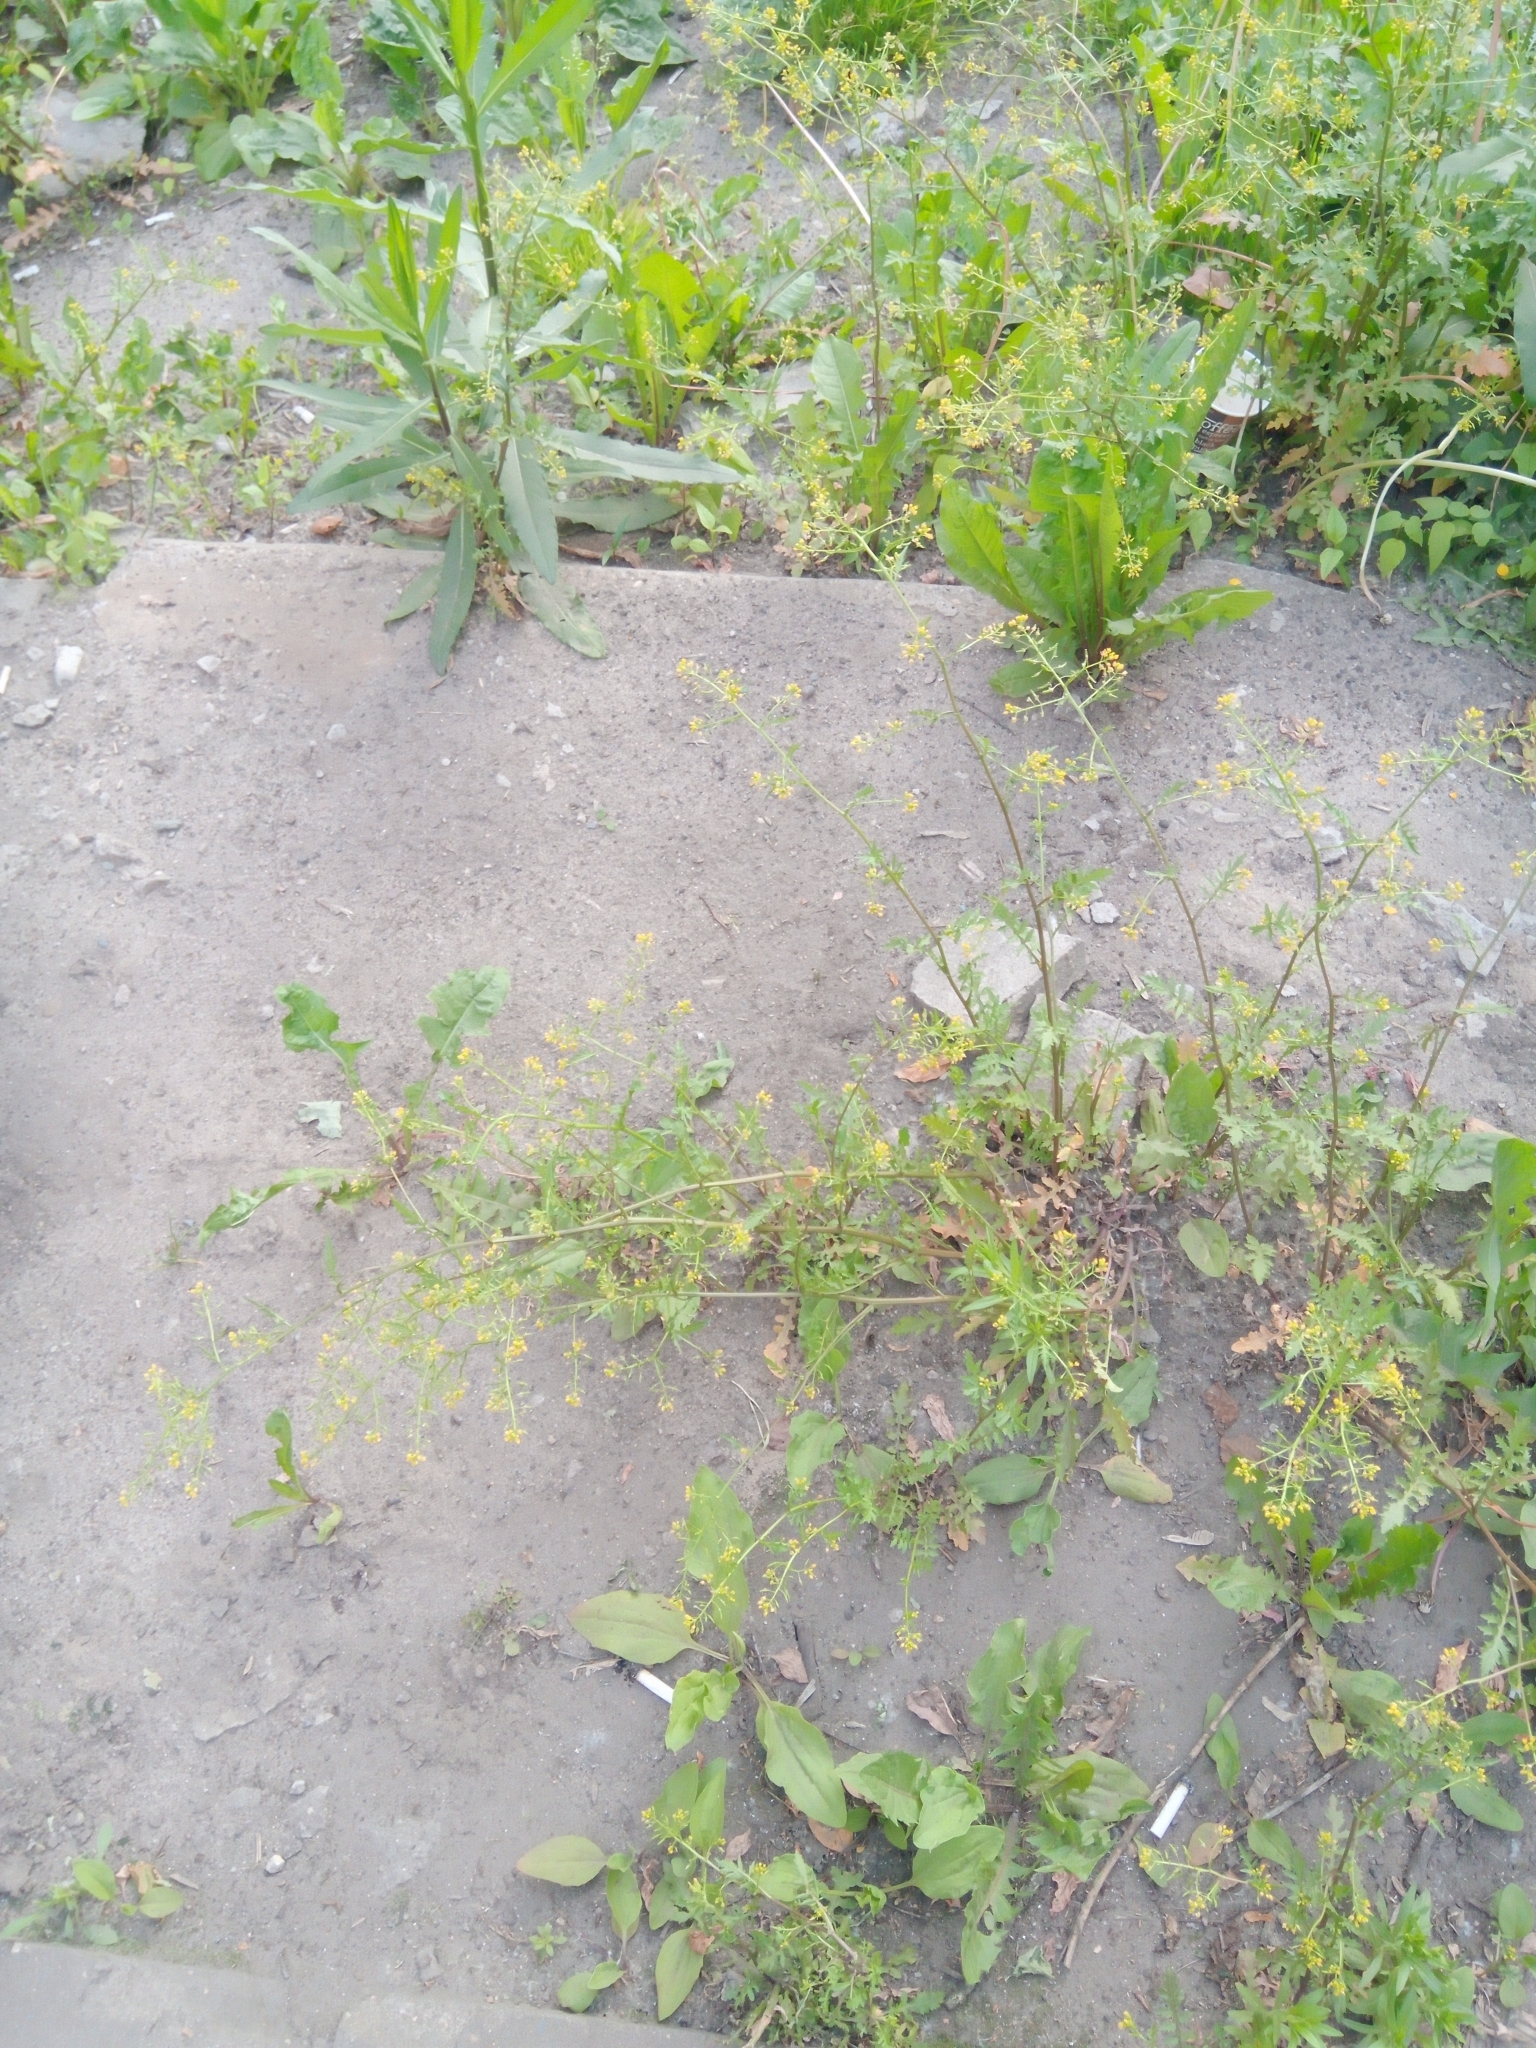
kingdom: Plantae
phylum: Tracheophyta
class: Magnoliopsida
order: Brassicales
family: Brassicaceae
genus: Rorippa
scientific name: Rorippa palustris
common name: Marsh yellow-cress
